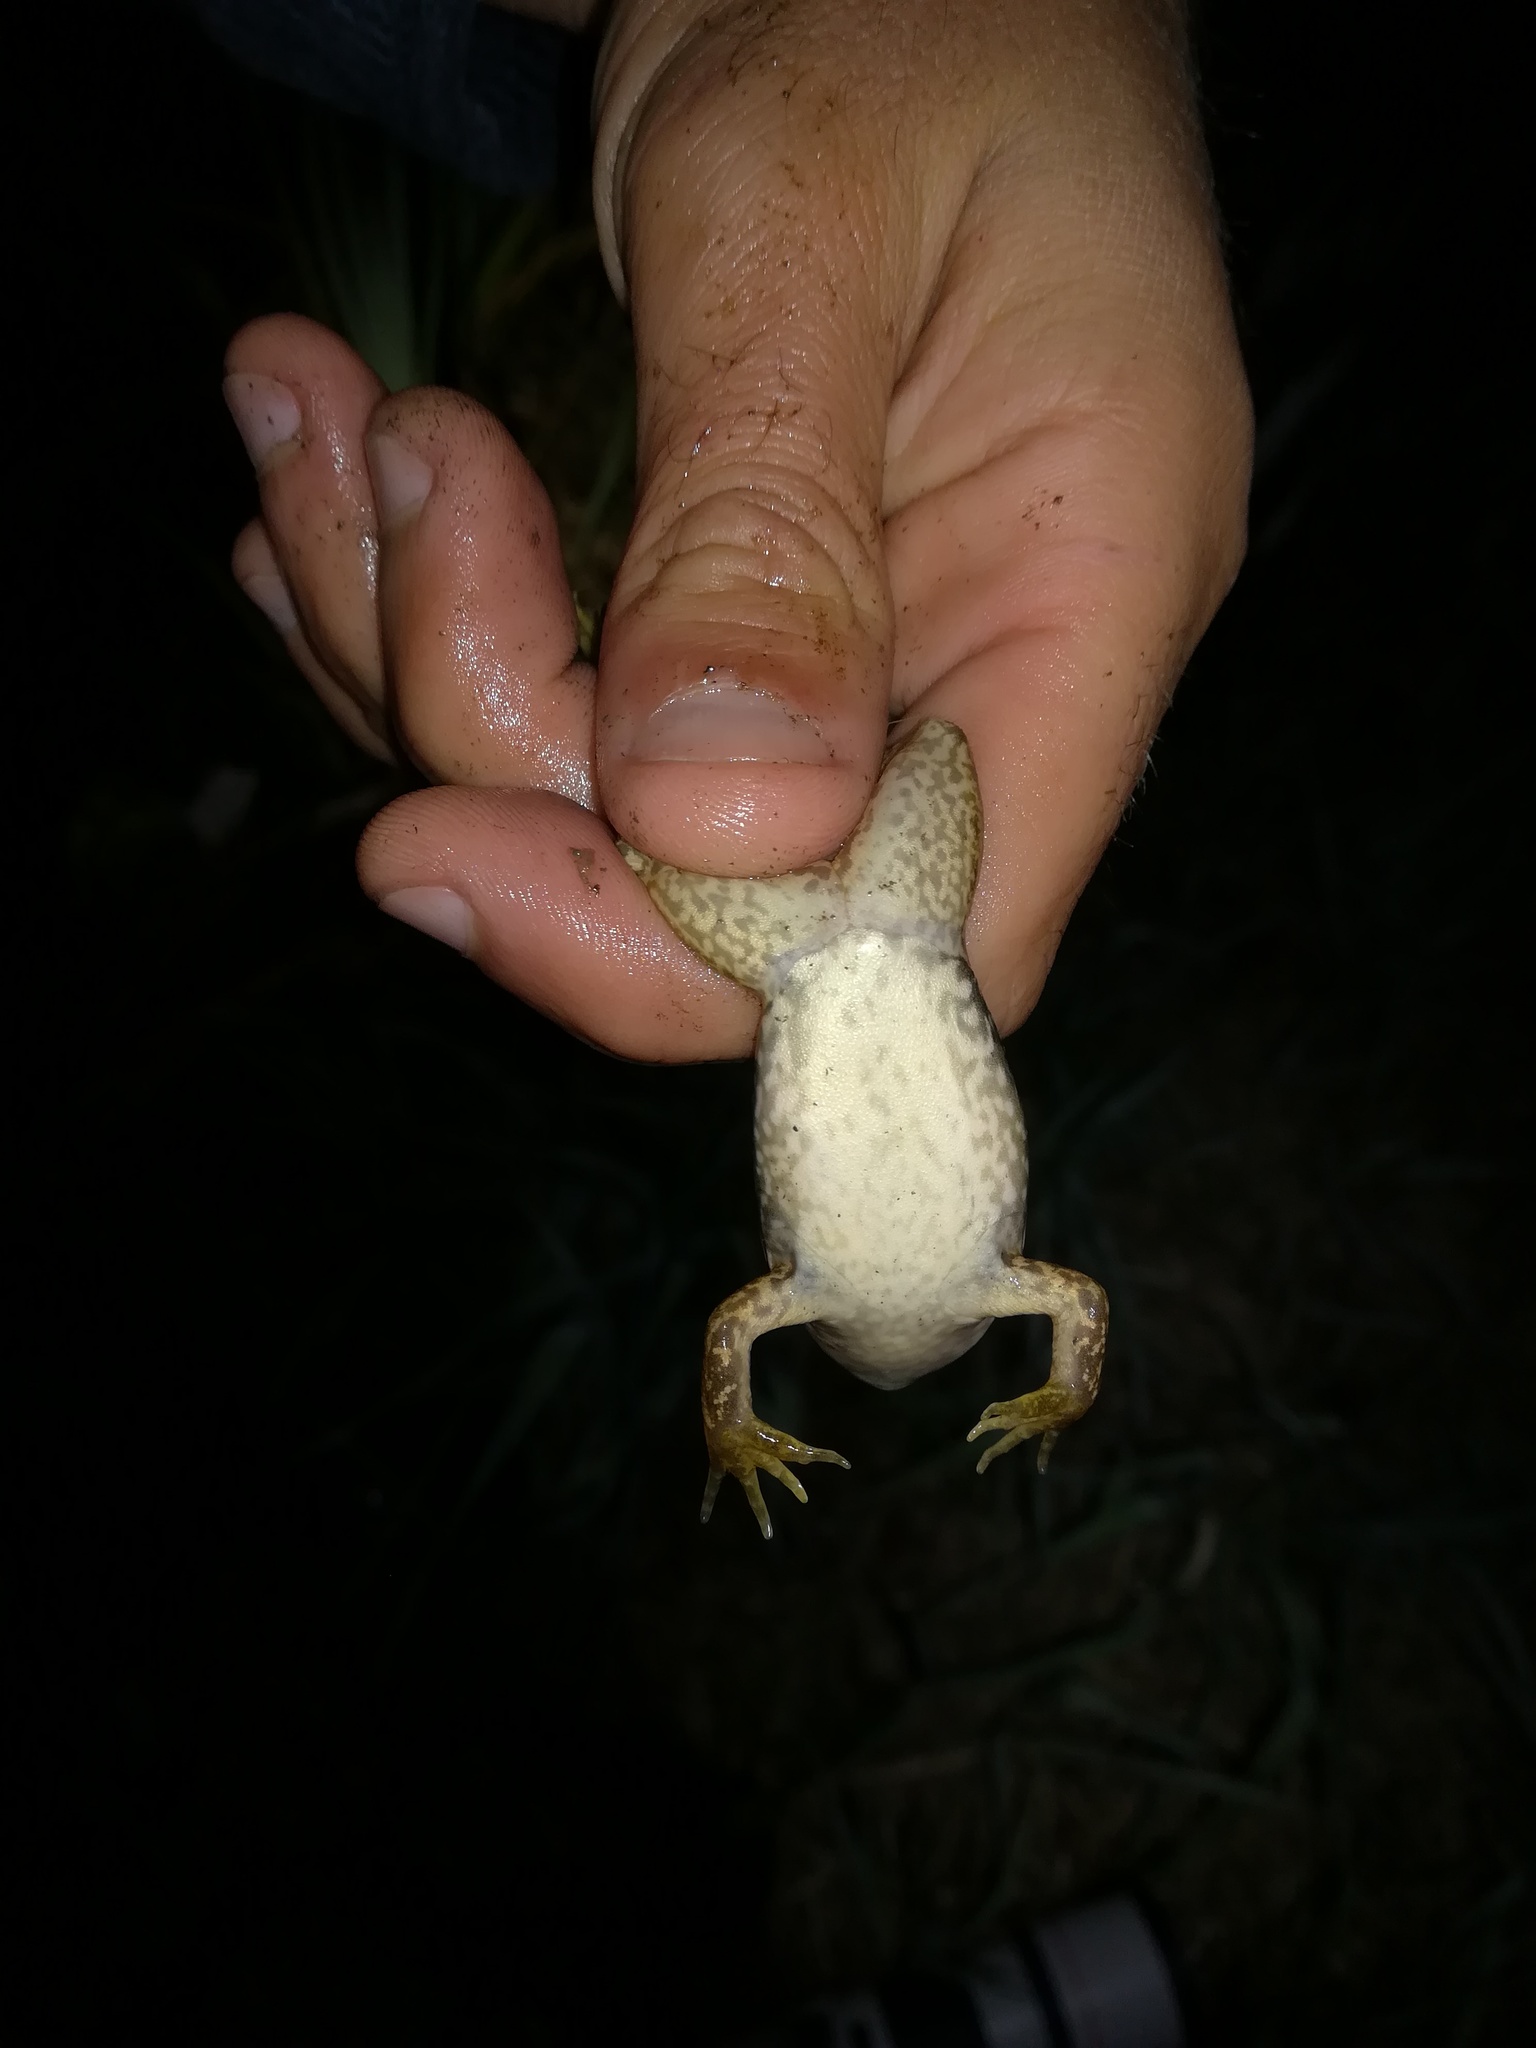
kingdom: Animalia
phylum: Chordata
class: Amphibia
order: Anura
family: Ranidae
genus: Lithobates
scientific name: Lithobates catesbeianus
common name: American bullfrog
